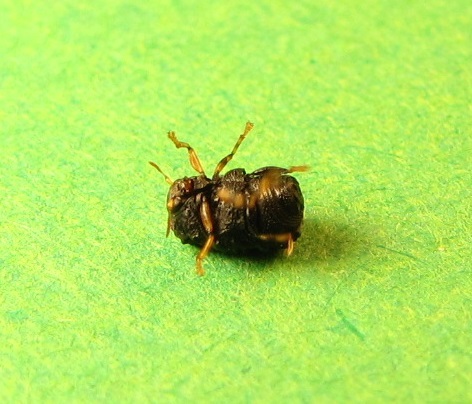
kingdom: Animalia
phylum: Arthropoda
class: Insecta
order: Coleoptera
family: Chrysomelidae
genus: Chlamisus
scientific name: Chlamisus foveolatus
